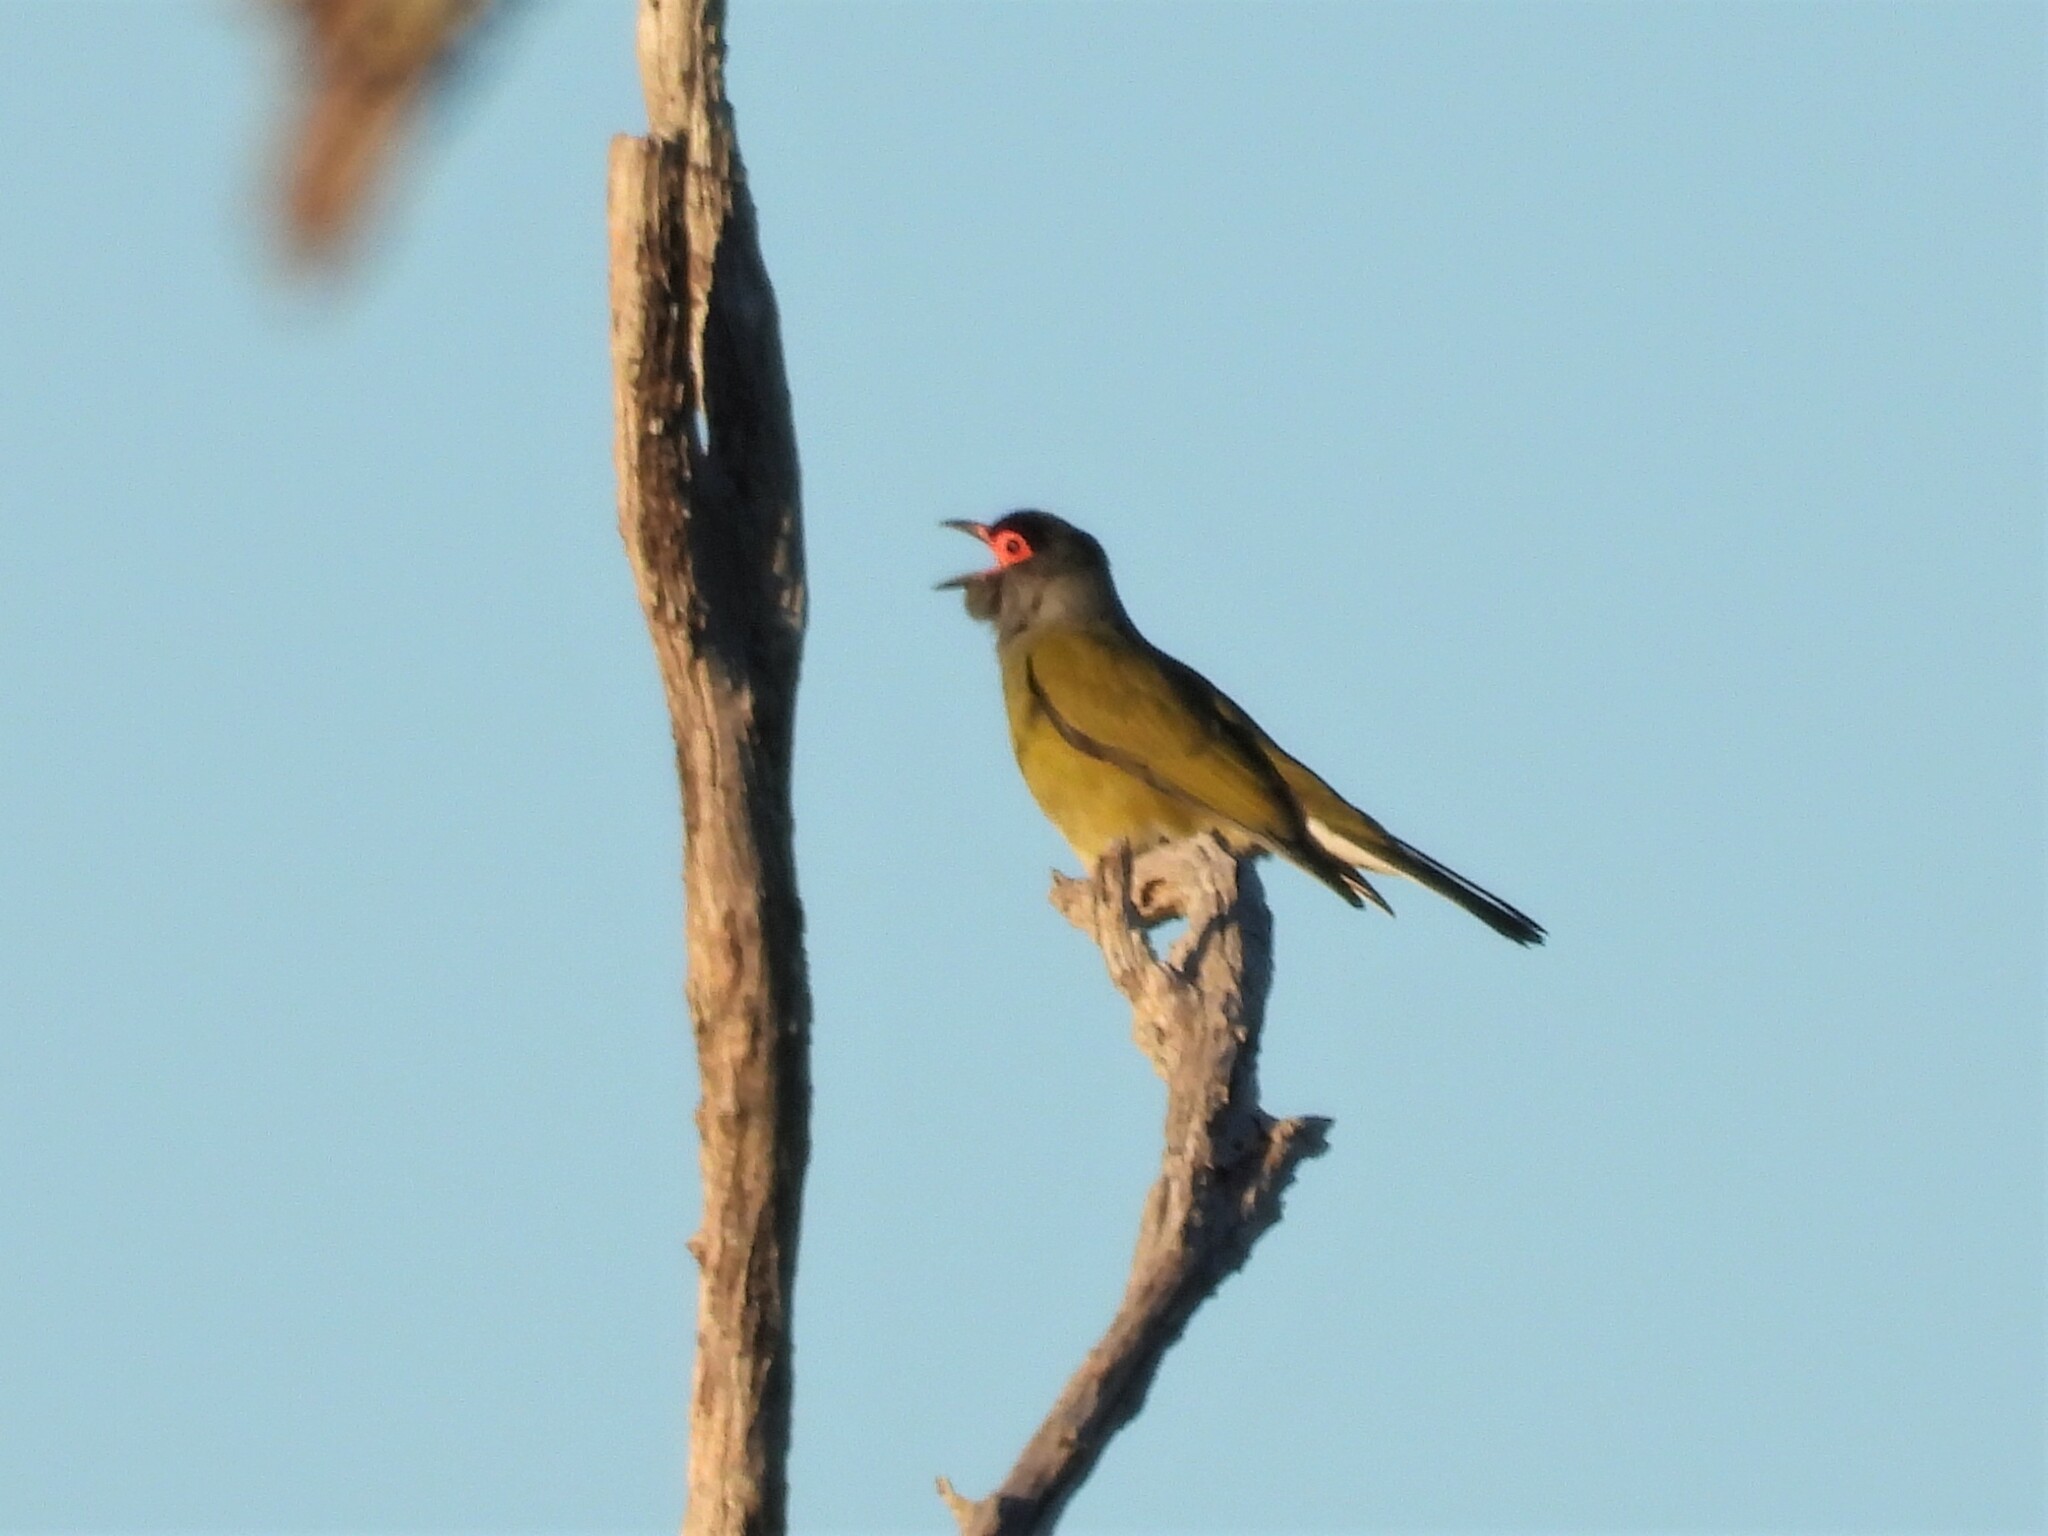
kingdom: Animalia
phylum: Chordata
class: Aves
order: Passeriformes
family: Oriolidae
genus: Sphecotheres
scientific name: Sphecotheres vieilloti
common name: Australasian figbird
